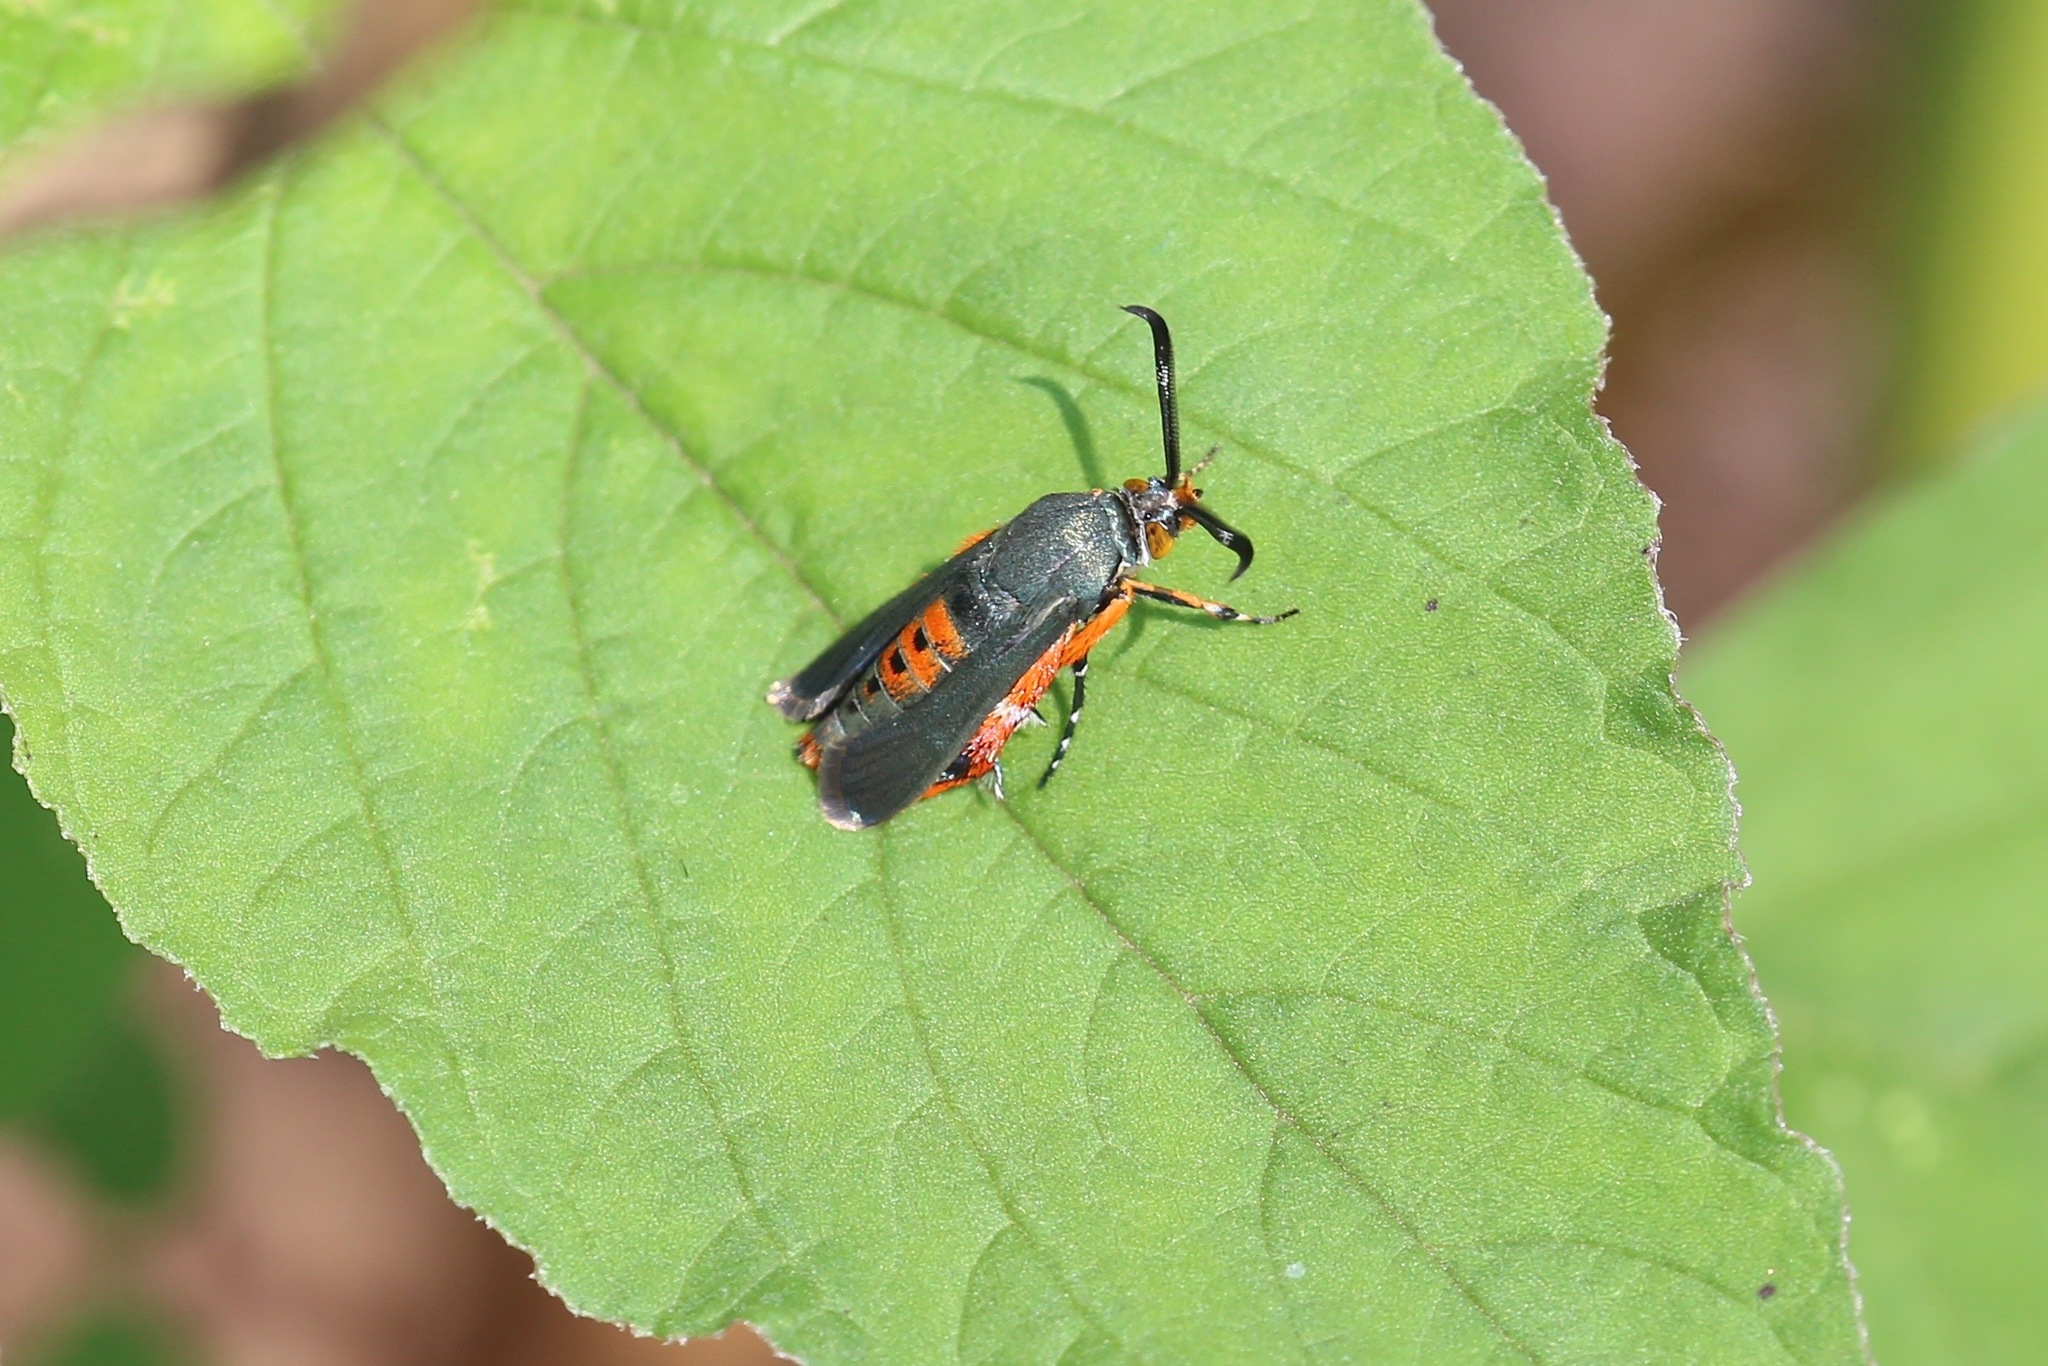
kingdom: Animalia
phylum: Arthropoda
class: Insecta
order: Lepidoptera
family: Sesiidae
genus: Eichlinia
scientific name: Eichlinia cucurbitae
